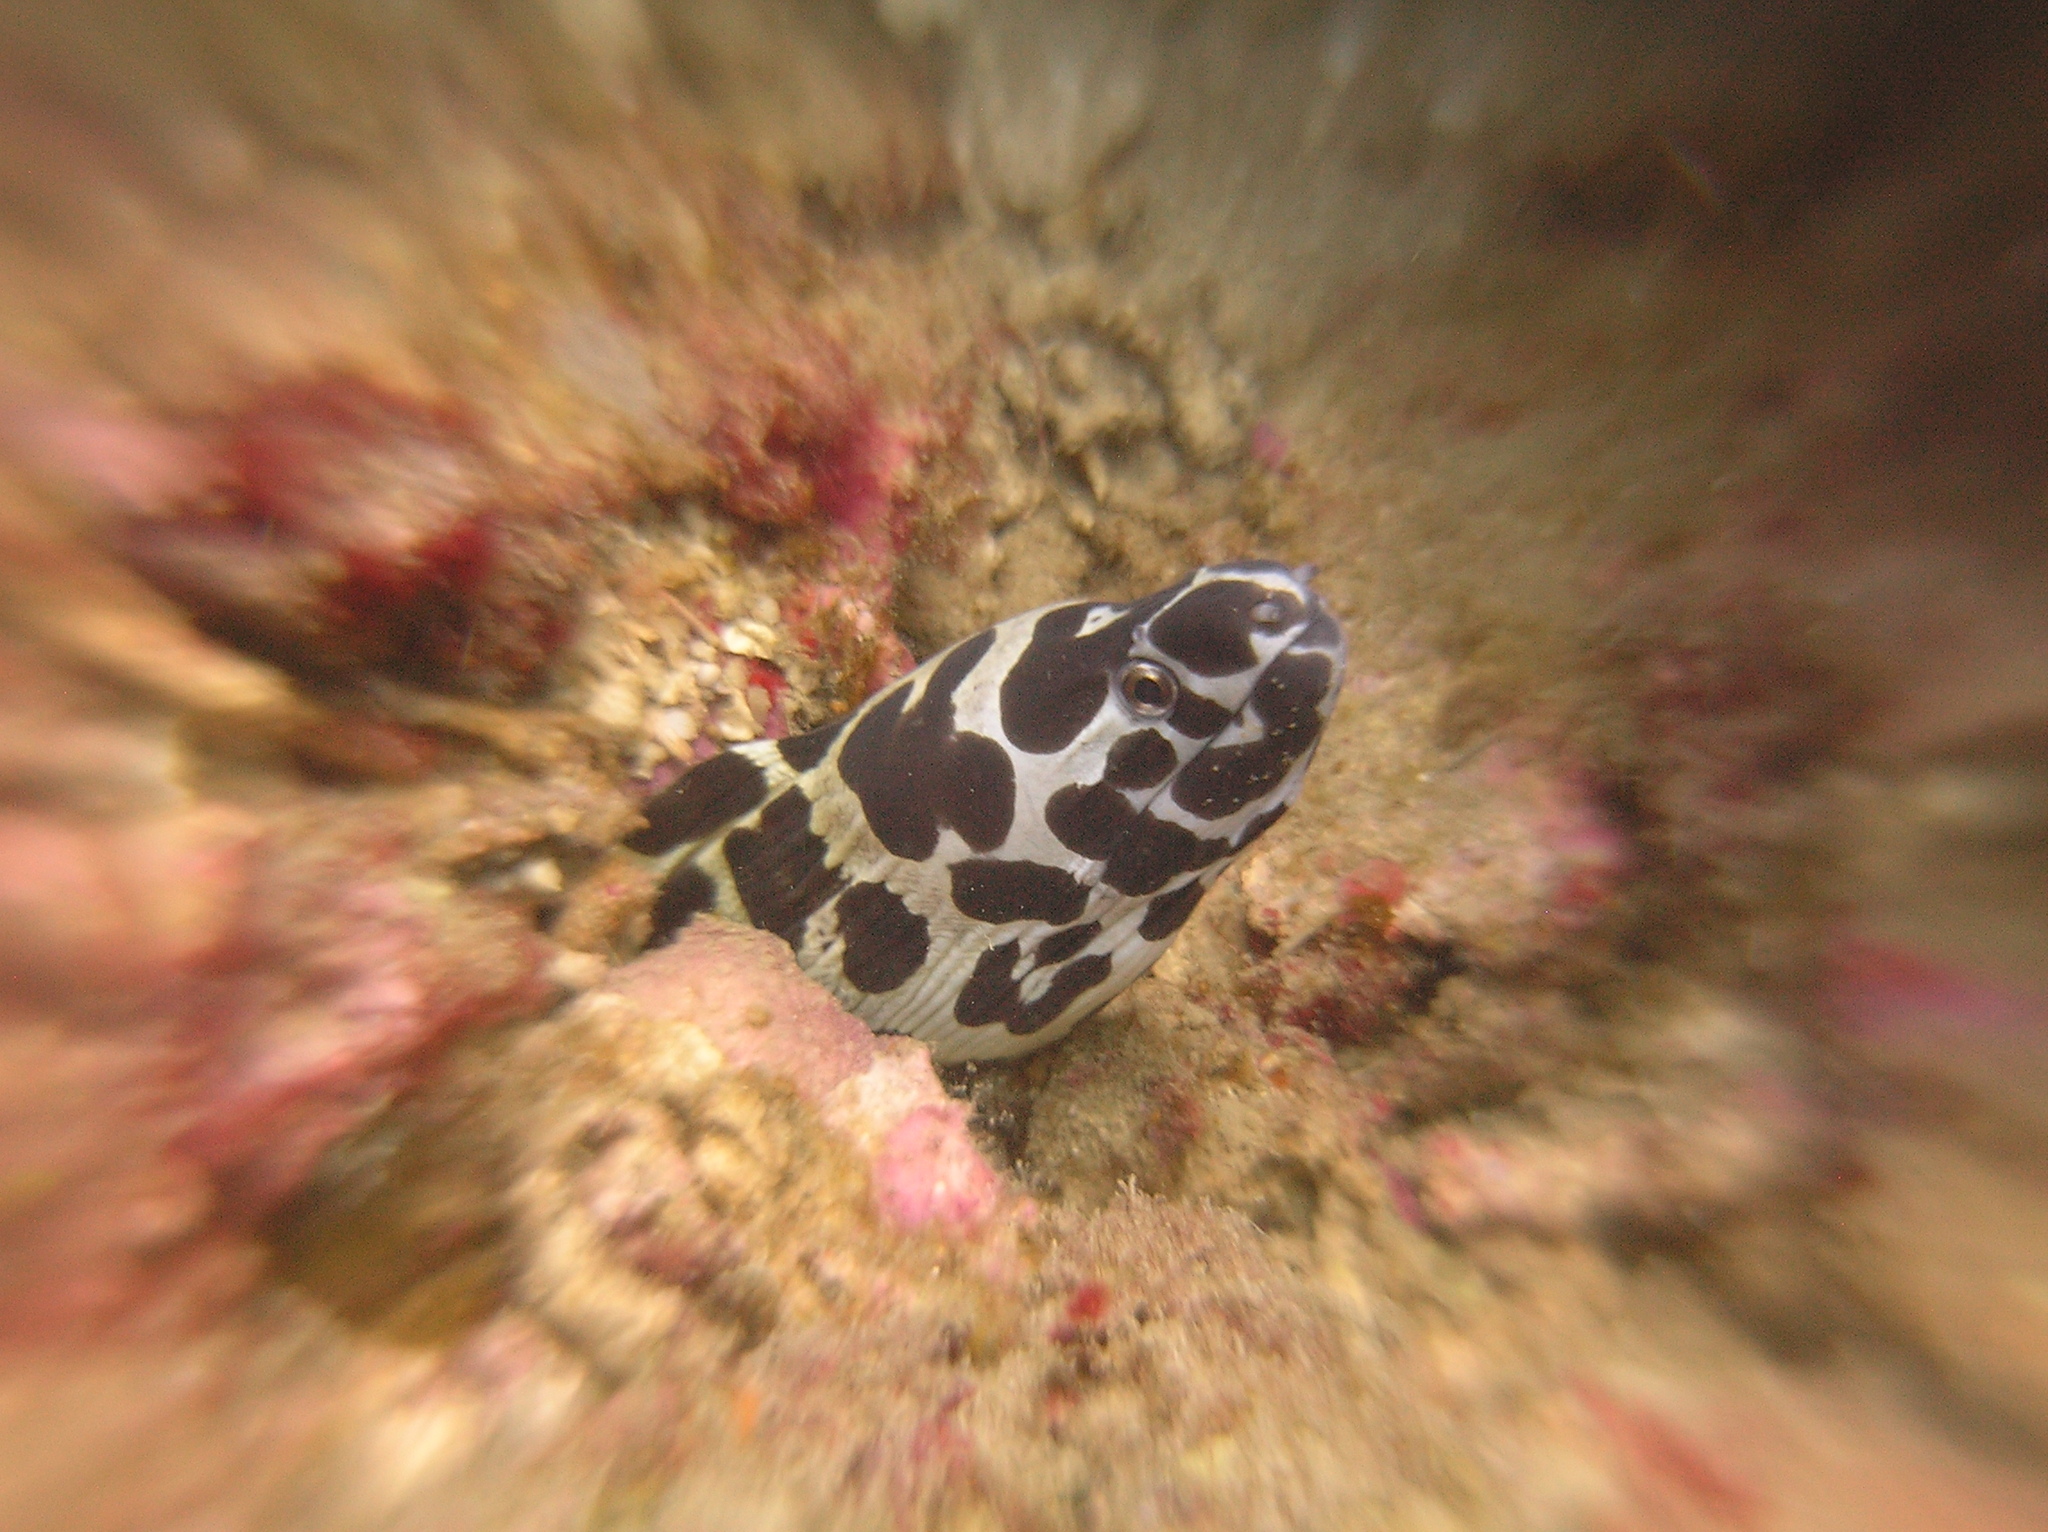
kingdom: Animalia
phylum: Chordata
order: Anguilliformes
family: Muraenidae
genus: Gymnothorax
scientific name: Gymnothorax isingteena
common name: Spotted moray
